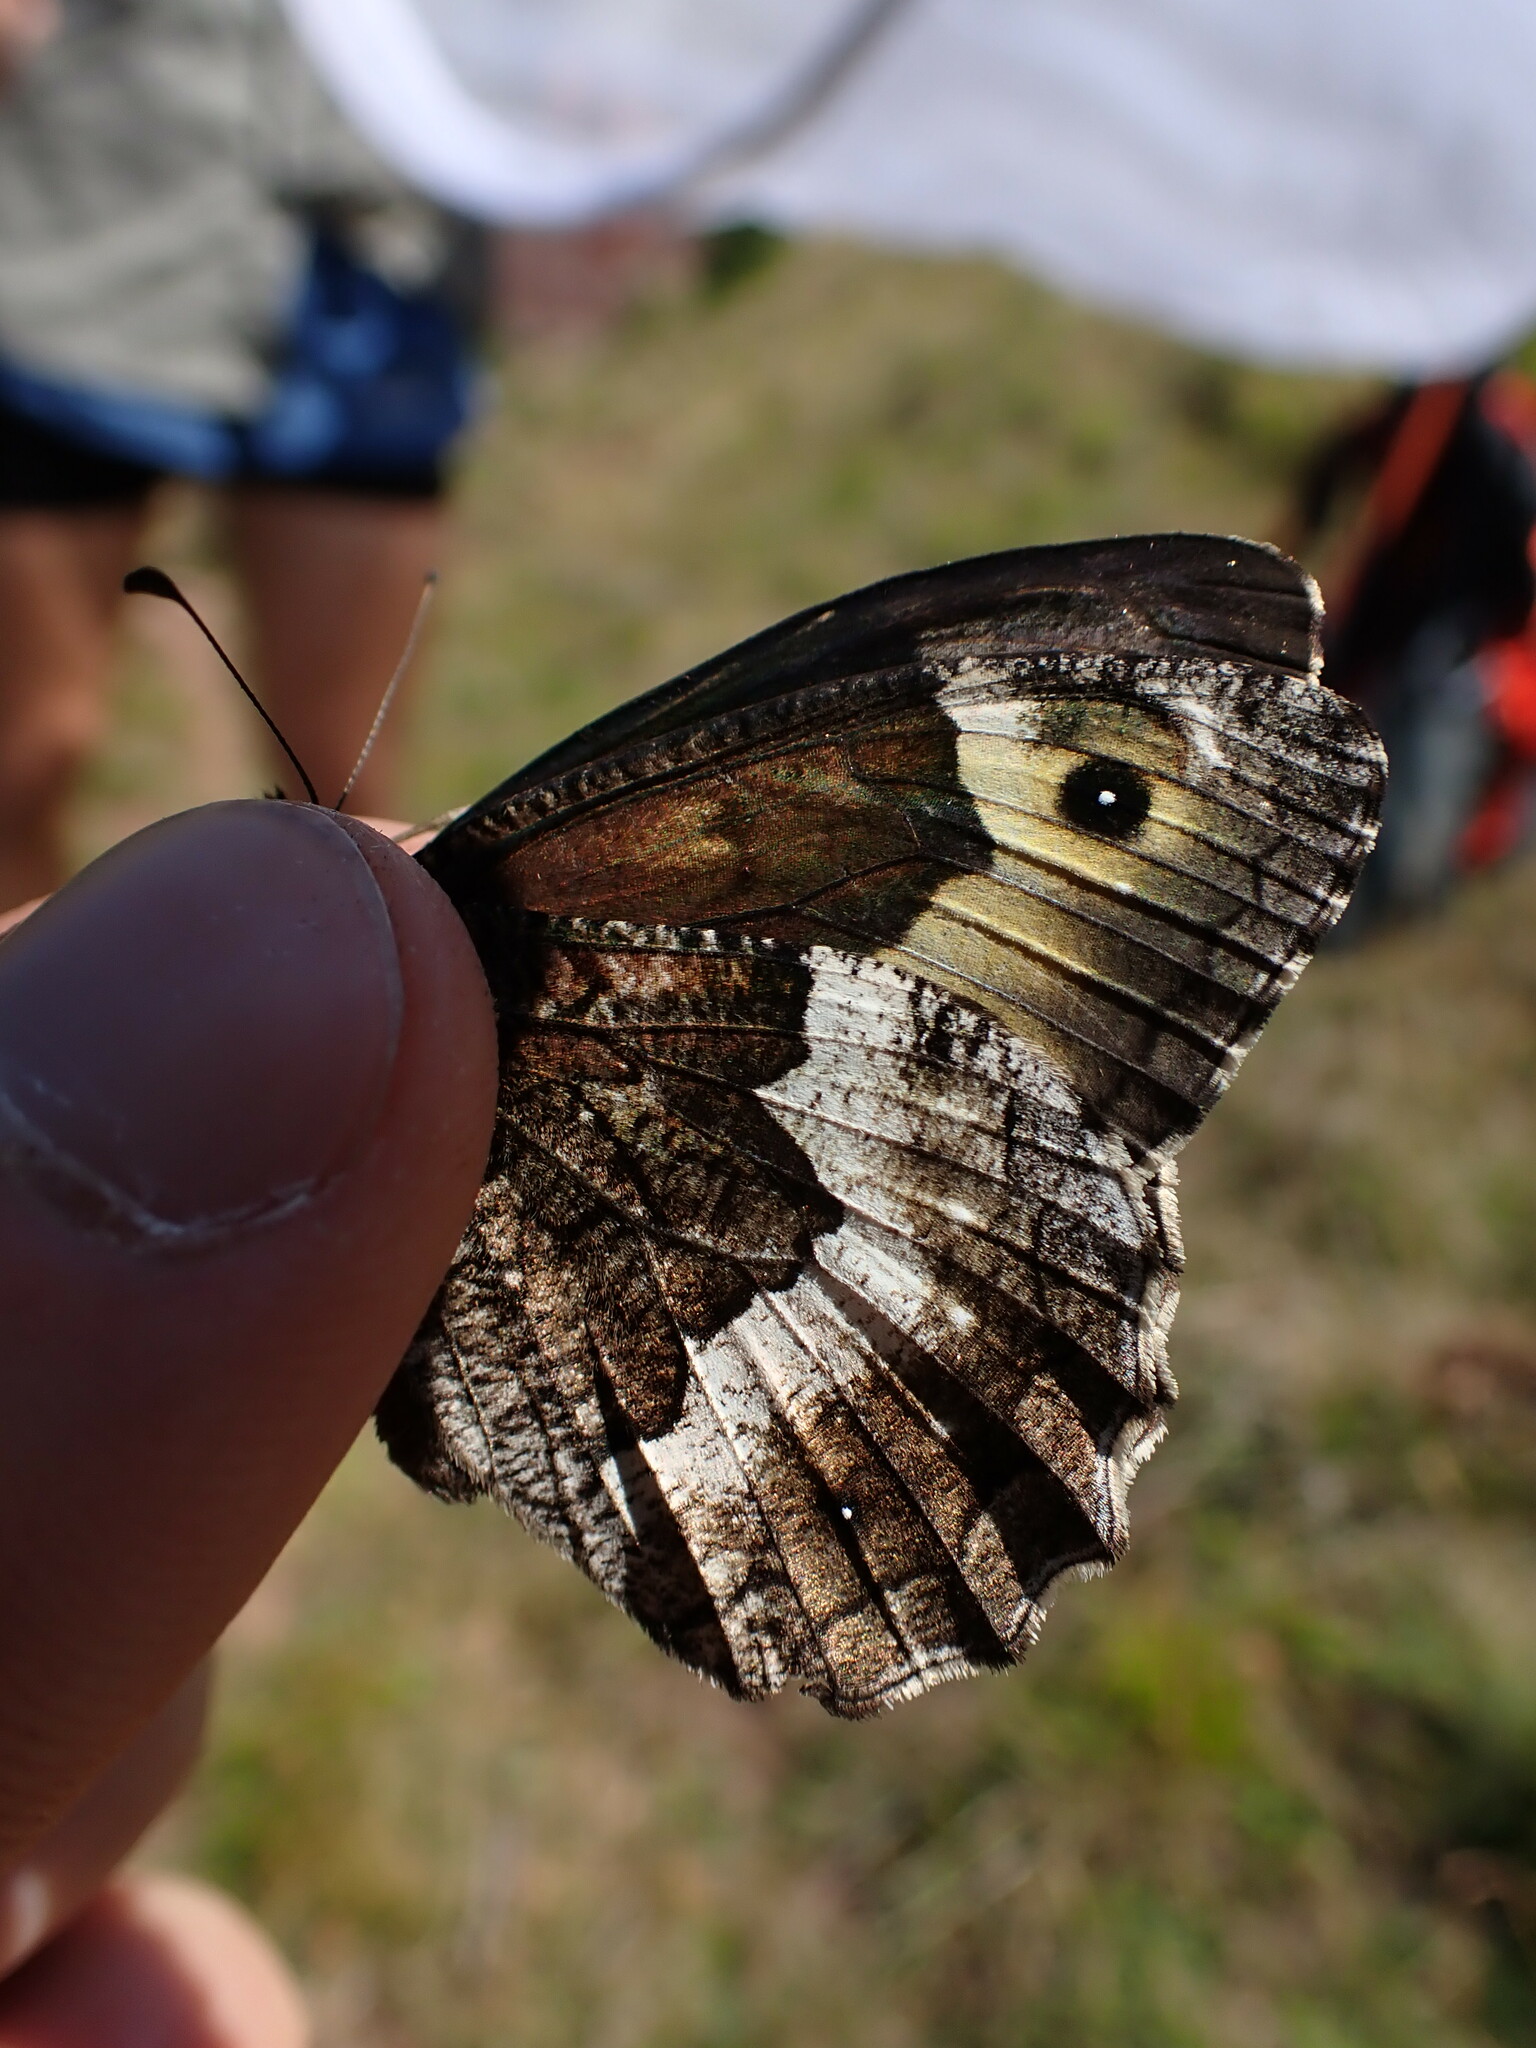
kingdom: Animalia
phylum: Arthropoda
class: Insecta
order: Lepidoptera
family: Nymphalidae
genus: Hipparchia
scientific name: Hipparchia hermione
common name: Rock grayling
